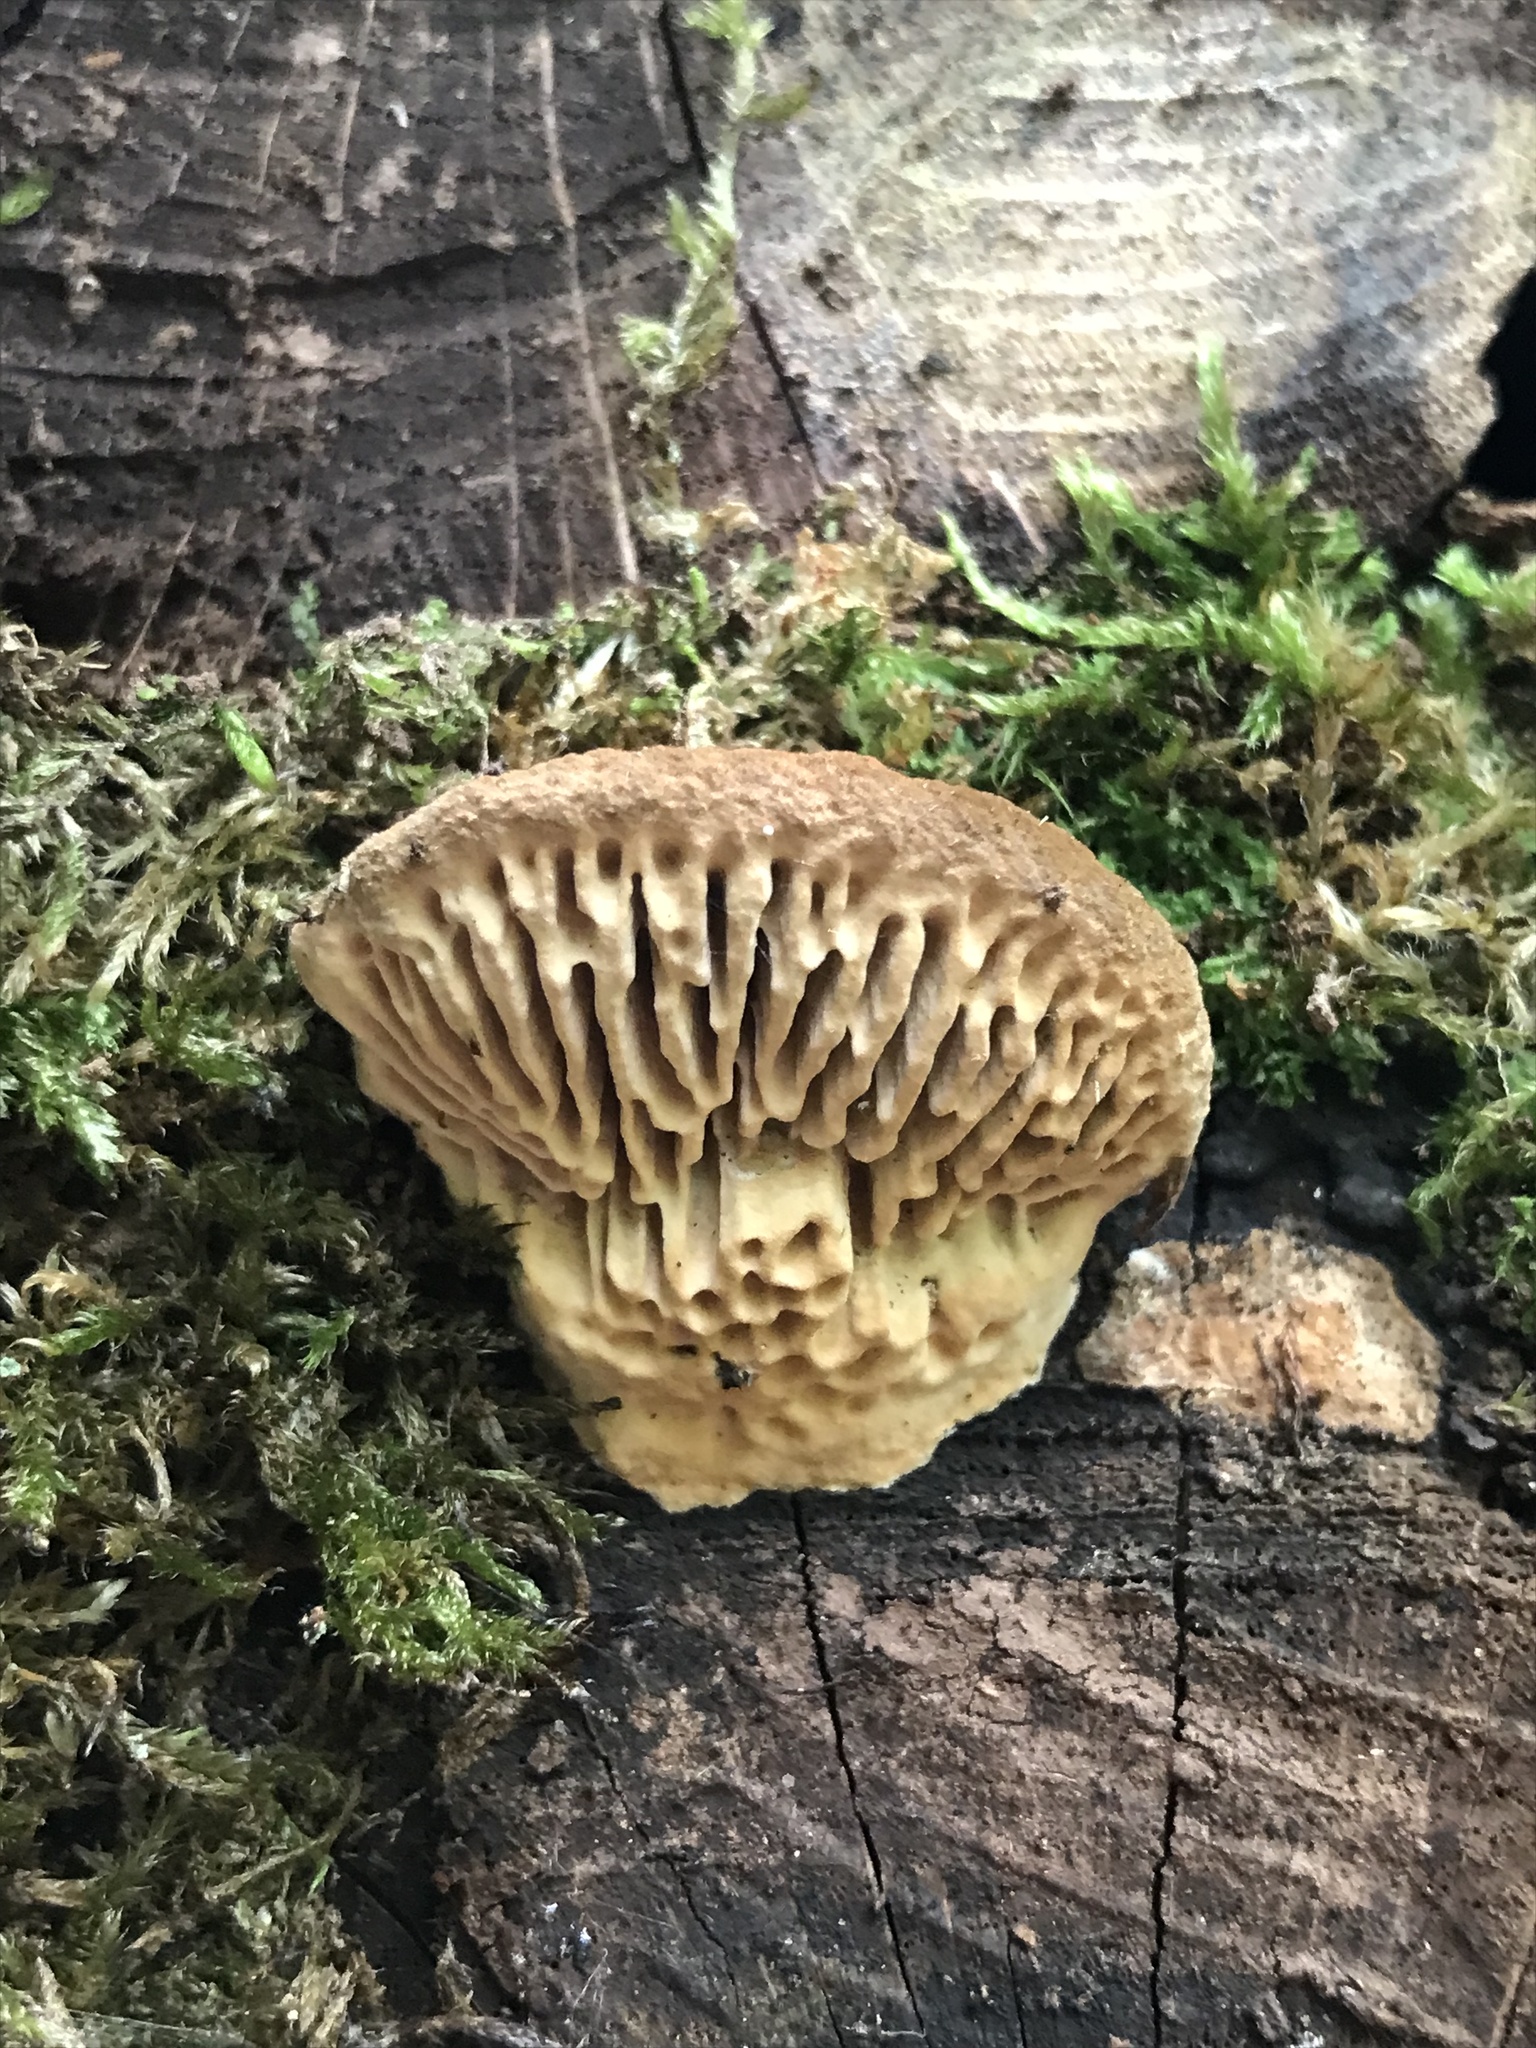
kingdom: Fungi
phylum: Basidiomycota
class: Agaricomycetes
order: Polyporales
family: Fomitopsidaceae
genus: Fomitopsis
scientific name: Fomitopsis
